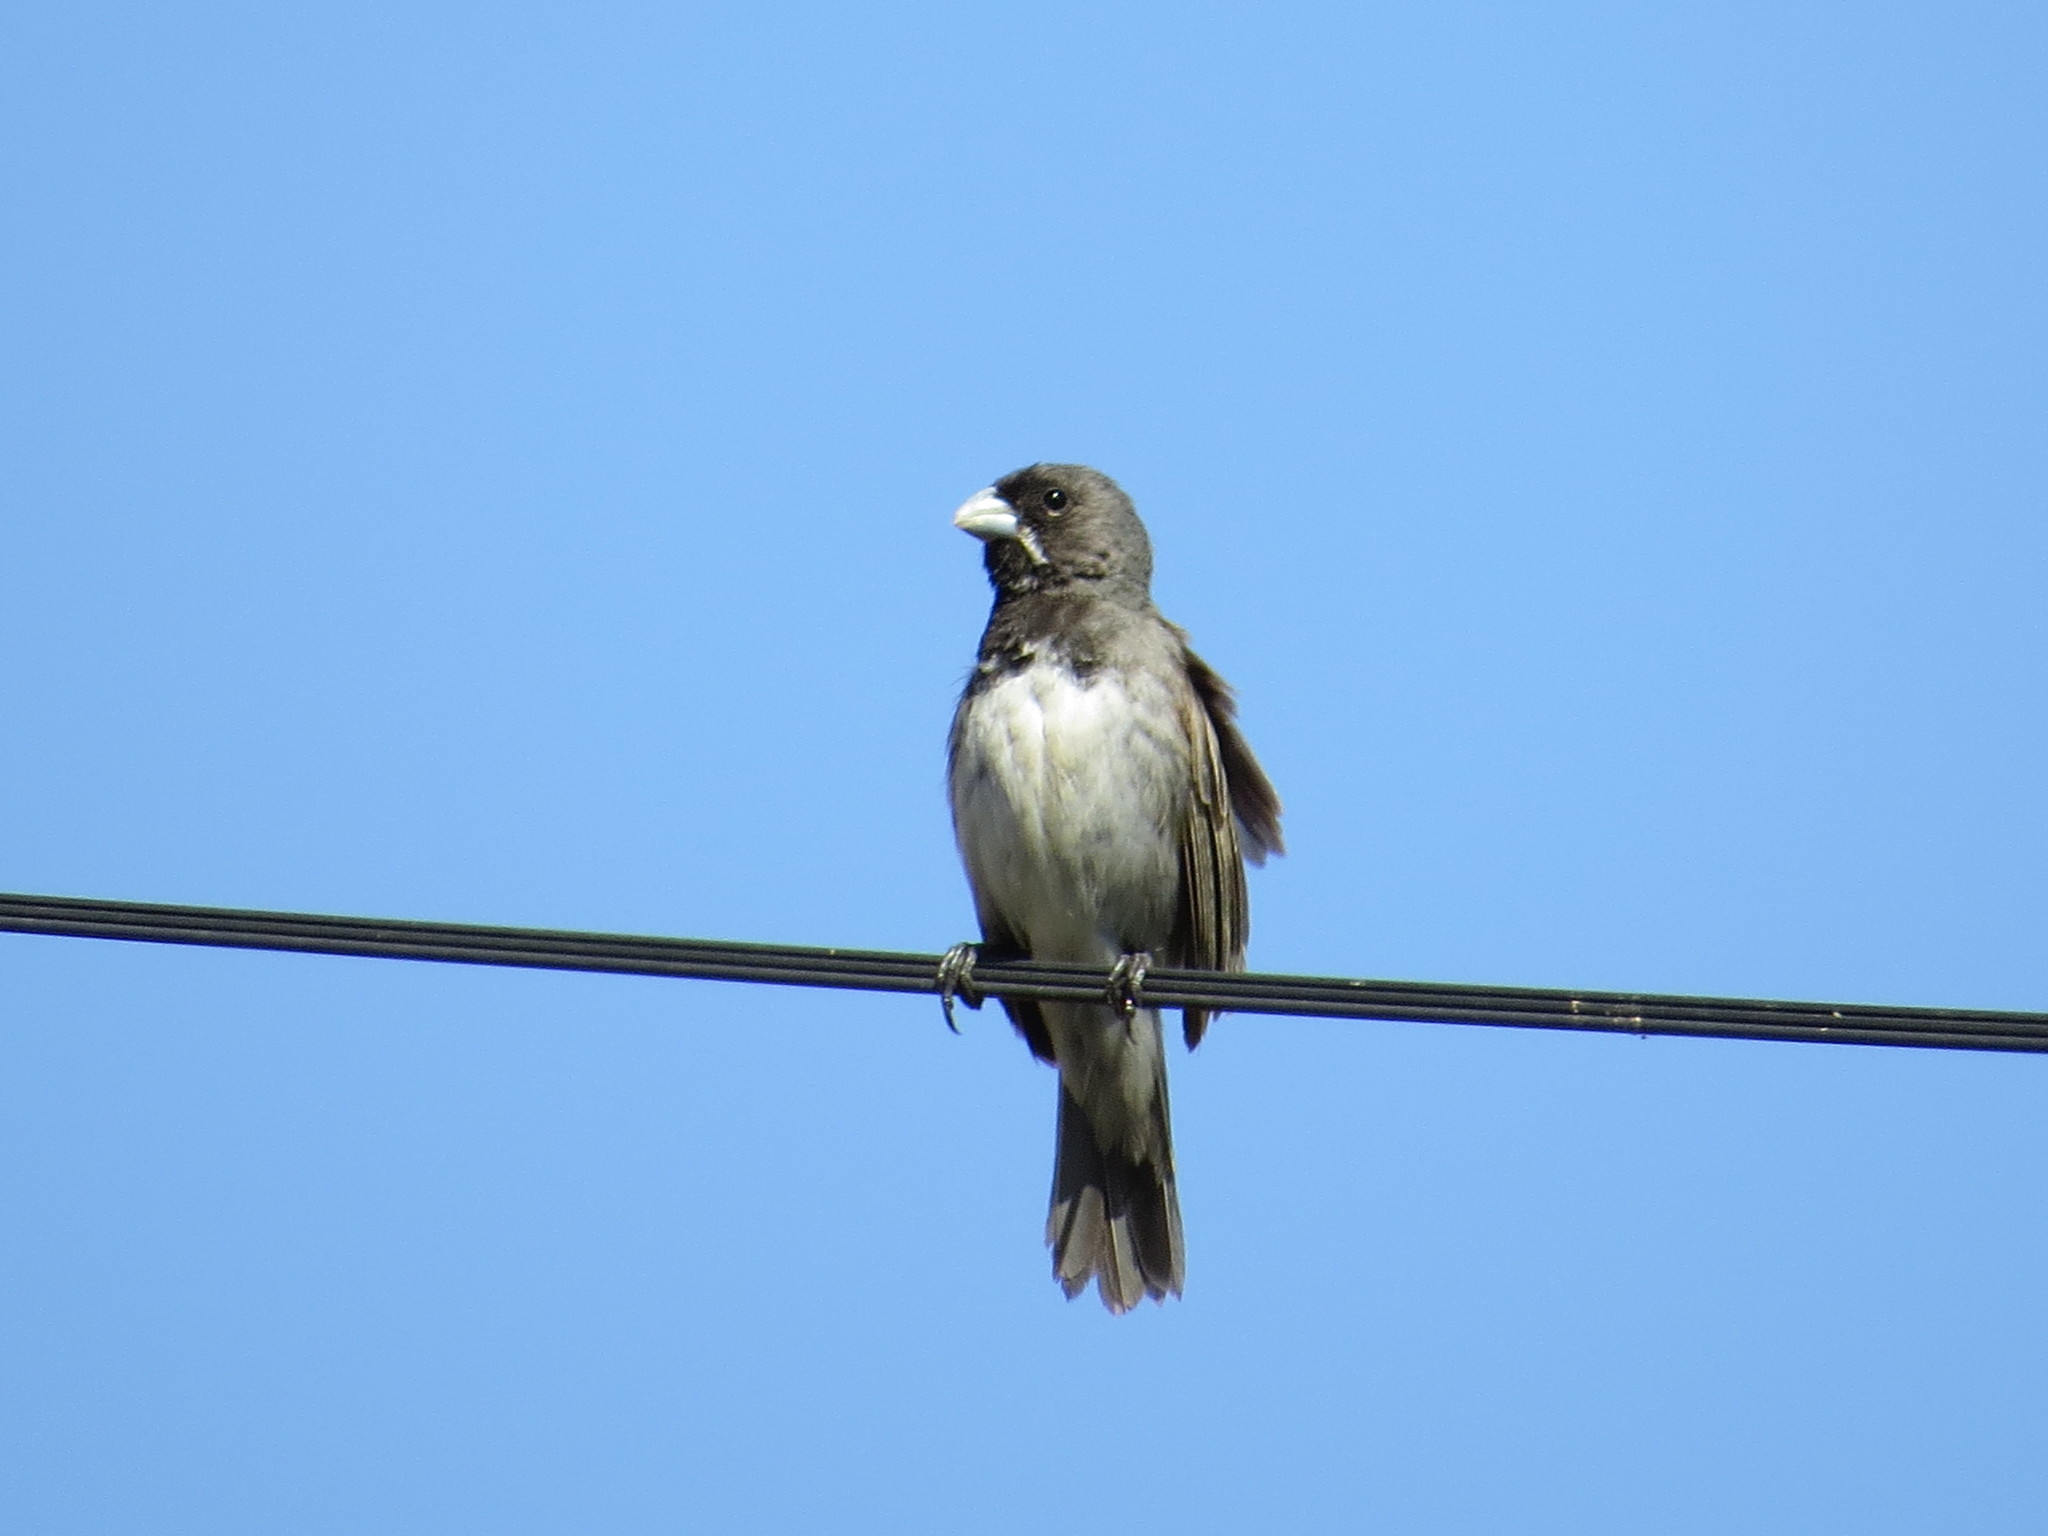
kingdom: Animalia
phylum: Chordata
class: Aves
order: Passeriformes
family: Thraupidae
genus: Sporophila
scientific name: Sporophila ardesiaca
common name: Dubois's seedeater
